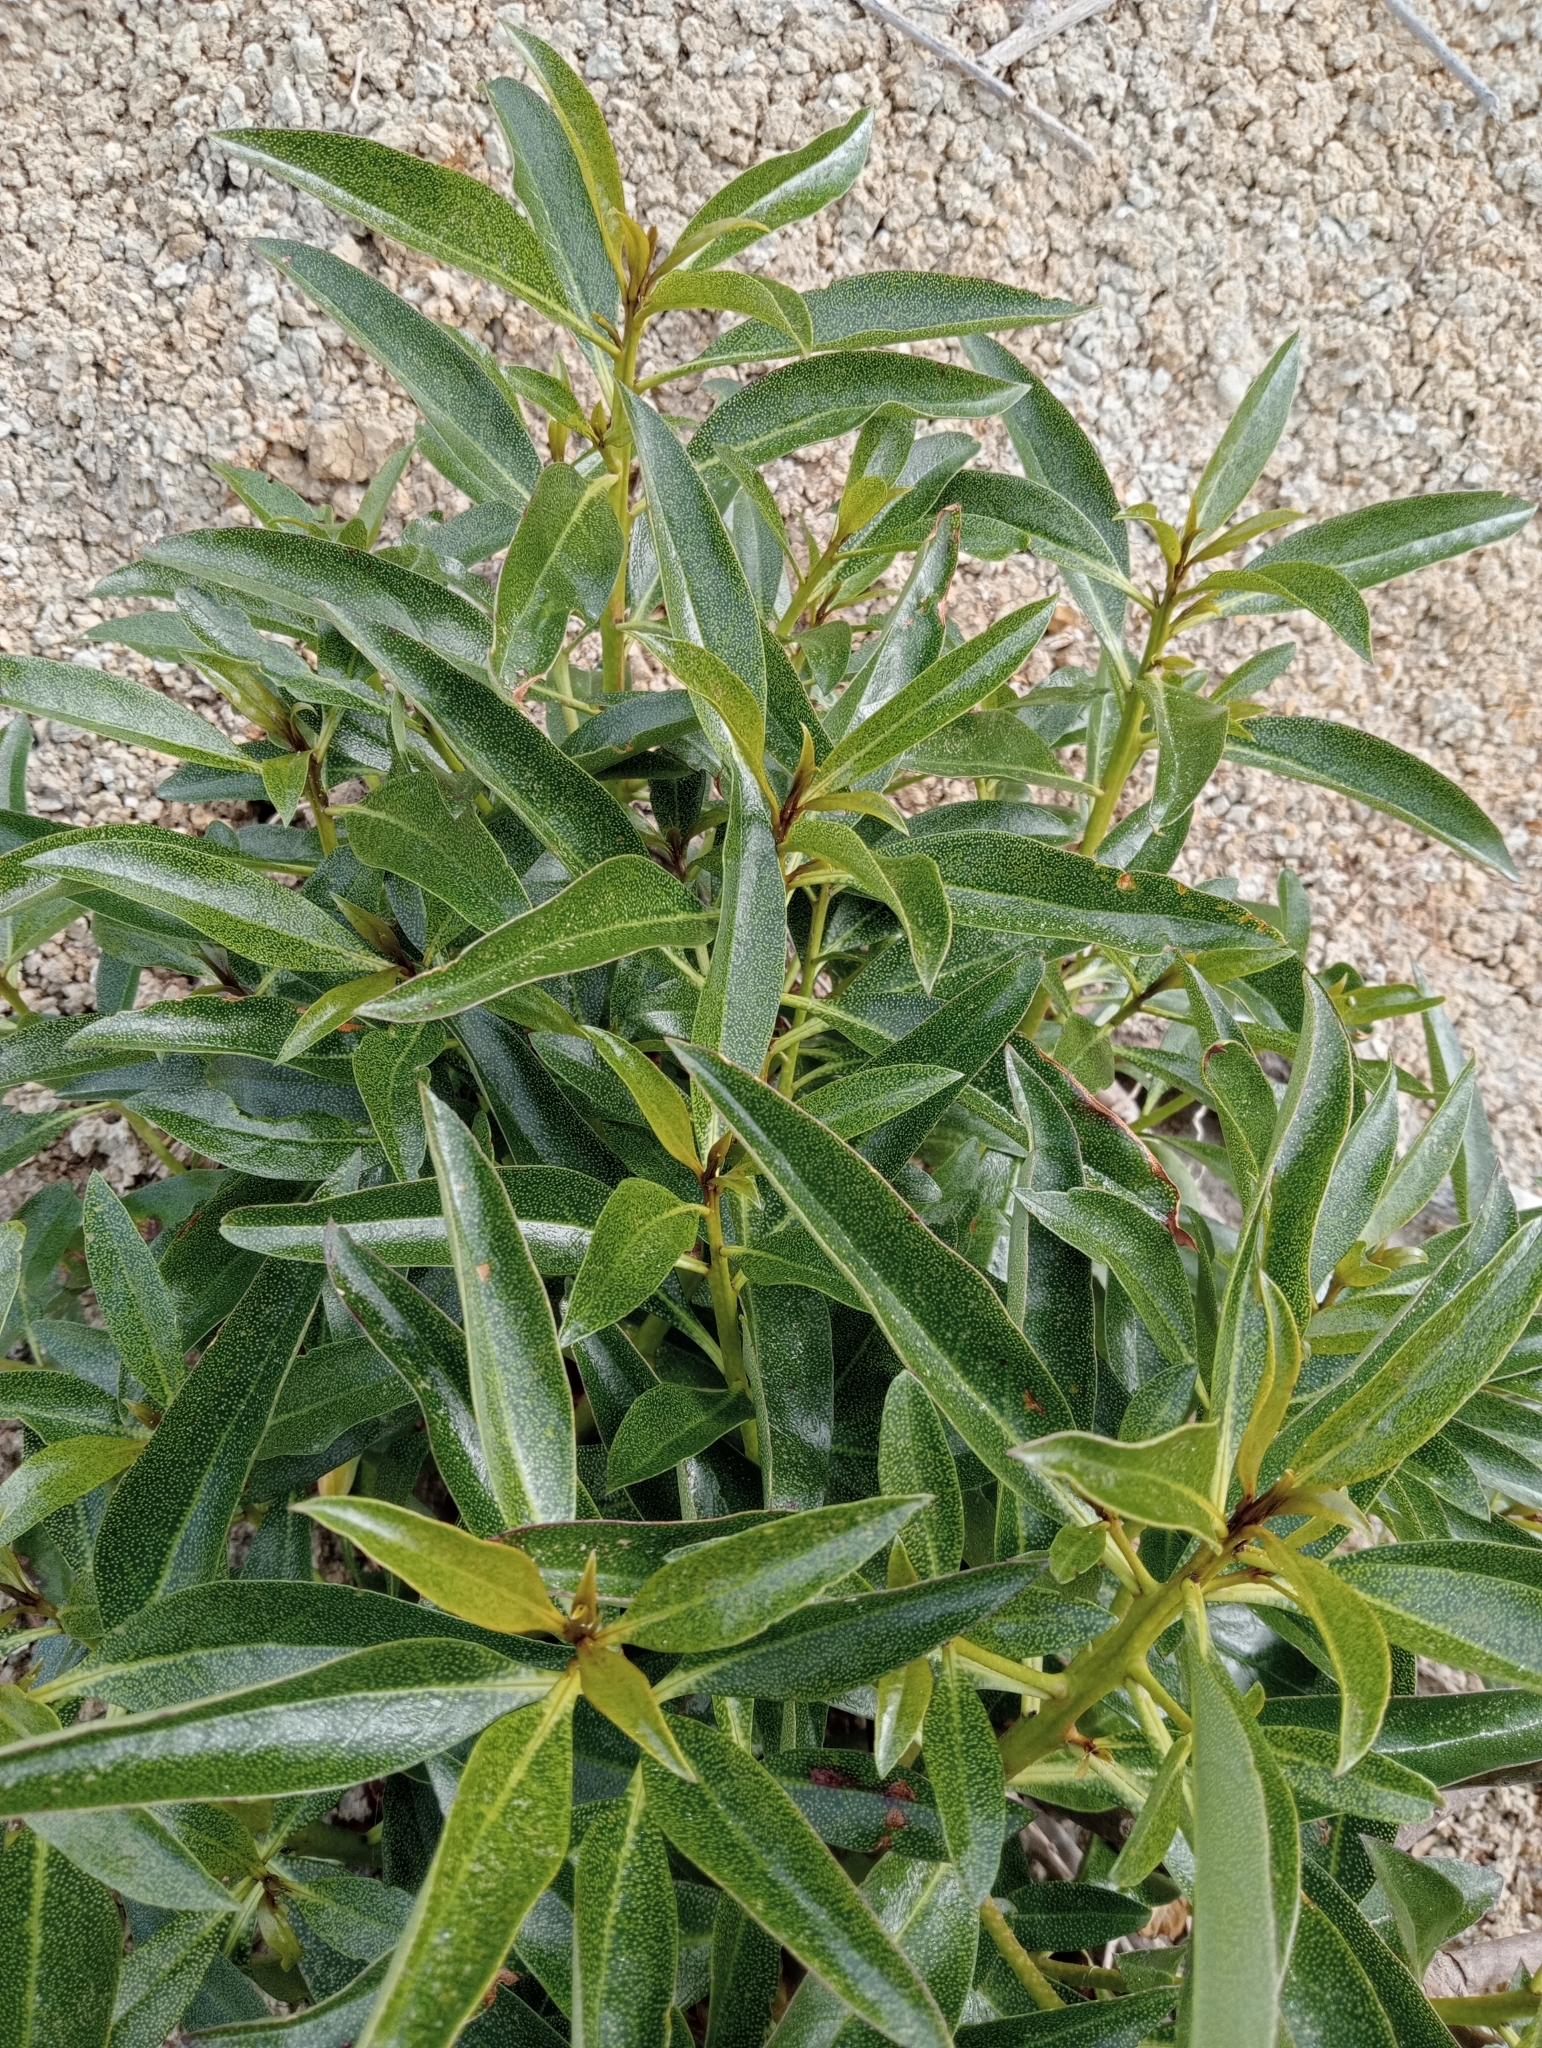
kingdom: Plantae
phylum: Tracheophyta
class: Magnoliopsida
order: Lamiales
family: Scrophulariaceae
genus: Myoporum
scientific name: Myoporum laetum
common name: Ngaio tree
